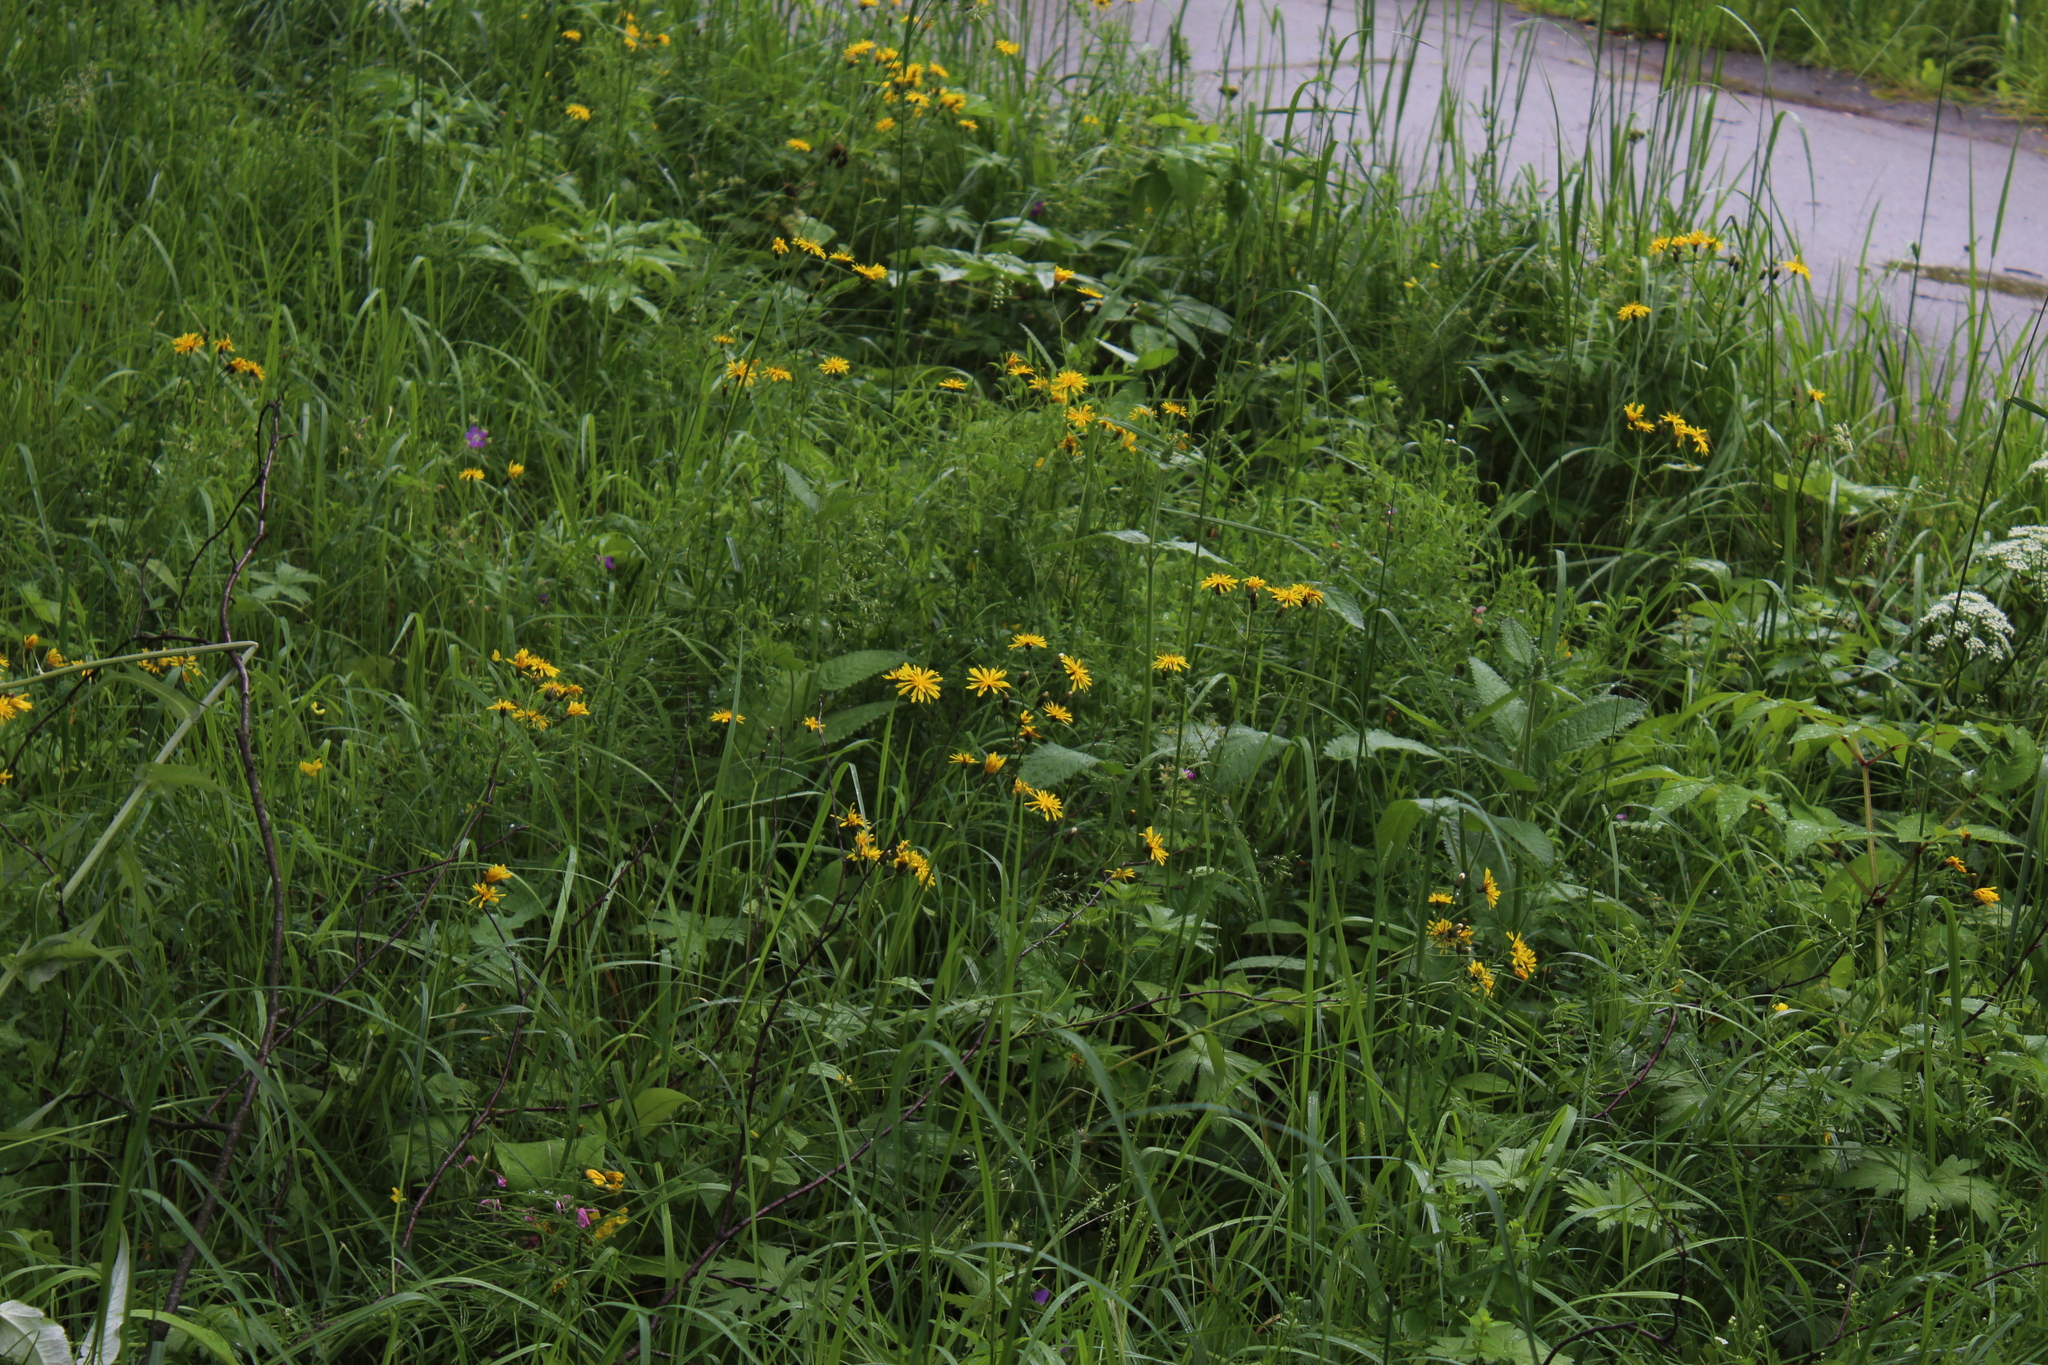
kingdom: Plantae
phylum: Tracheophyta
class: Magnoliopsida
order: Asterales
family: Asteraceae
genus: Crepis
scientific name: Crepis paludosa
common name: Marsh hawk's-beard
